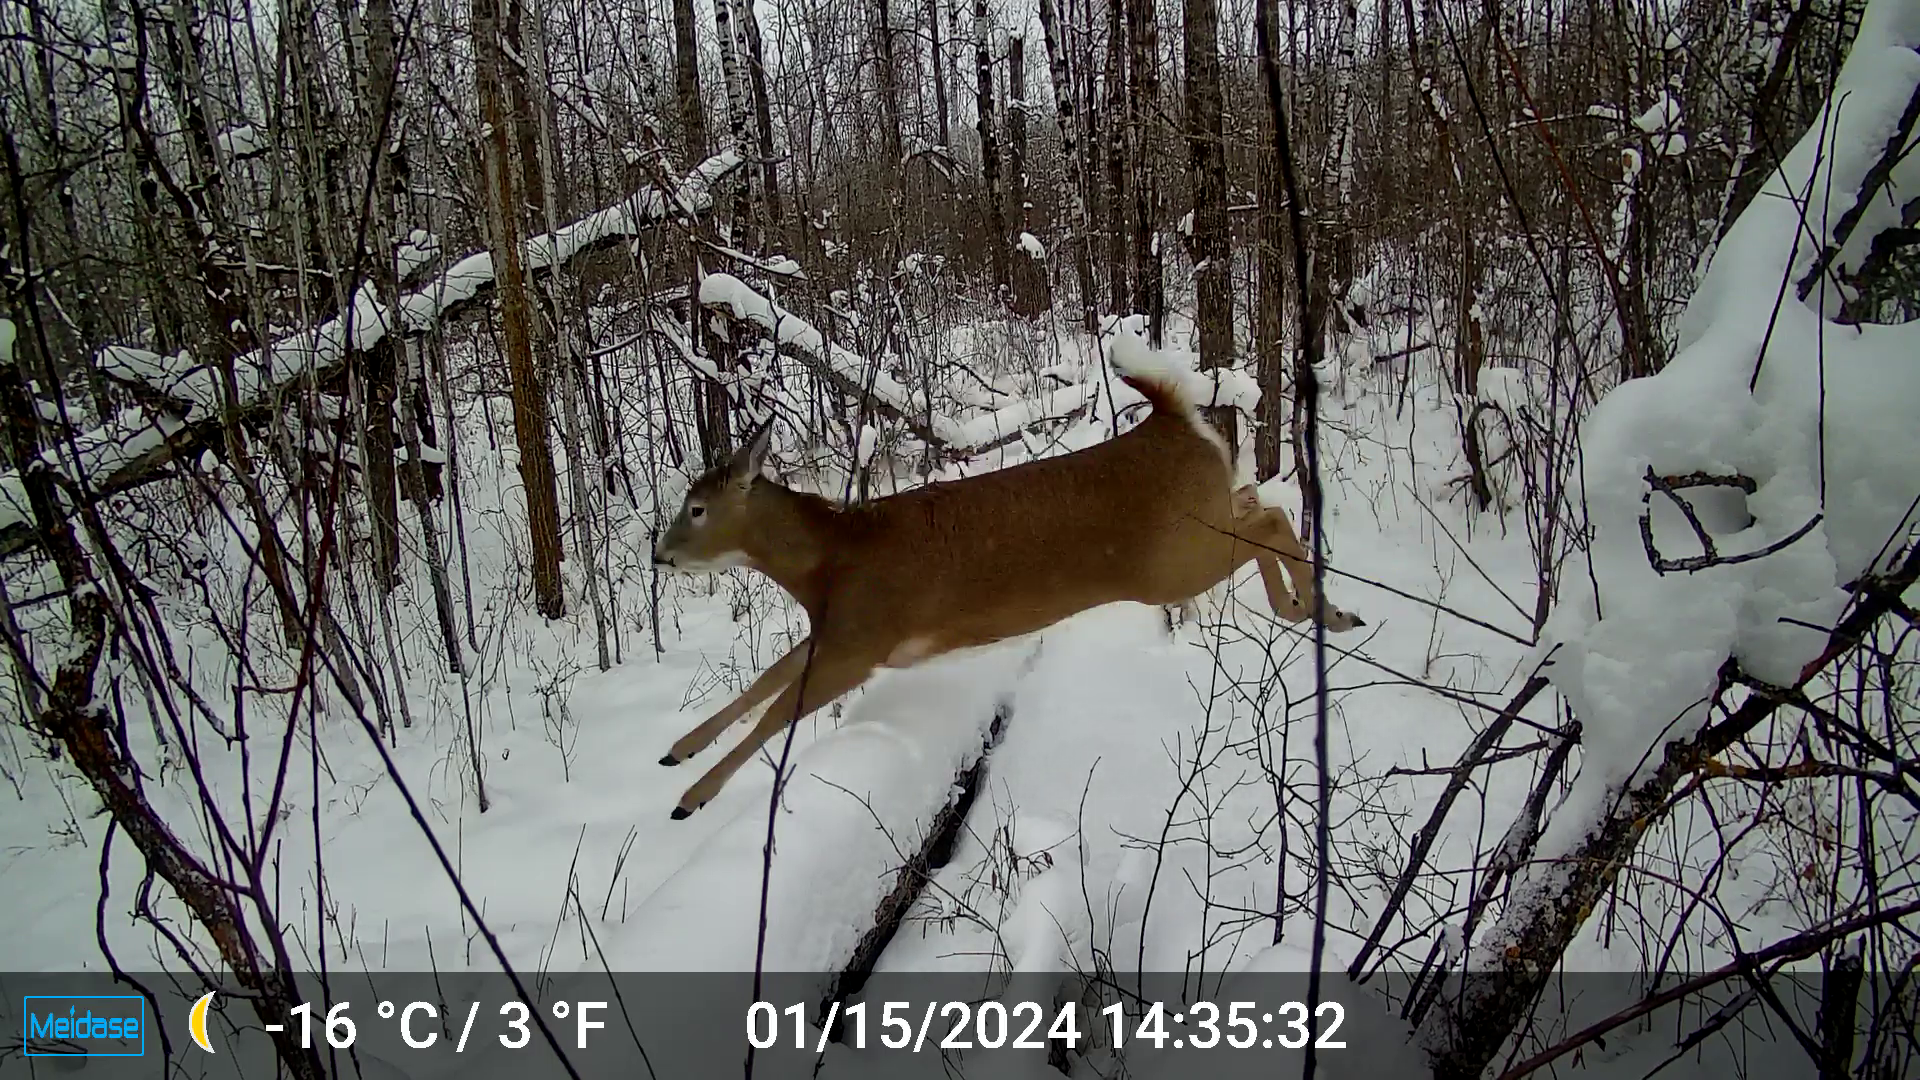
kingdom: Animalia
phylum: Chordata
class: Mammalia
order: Artiodactyla
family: Cervidae
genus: Odocoileus
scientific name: Odocoileus virginianus
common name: White-tailed deer
